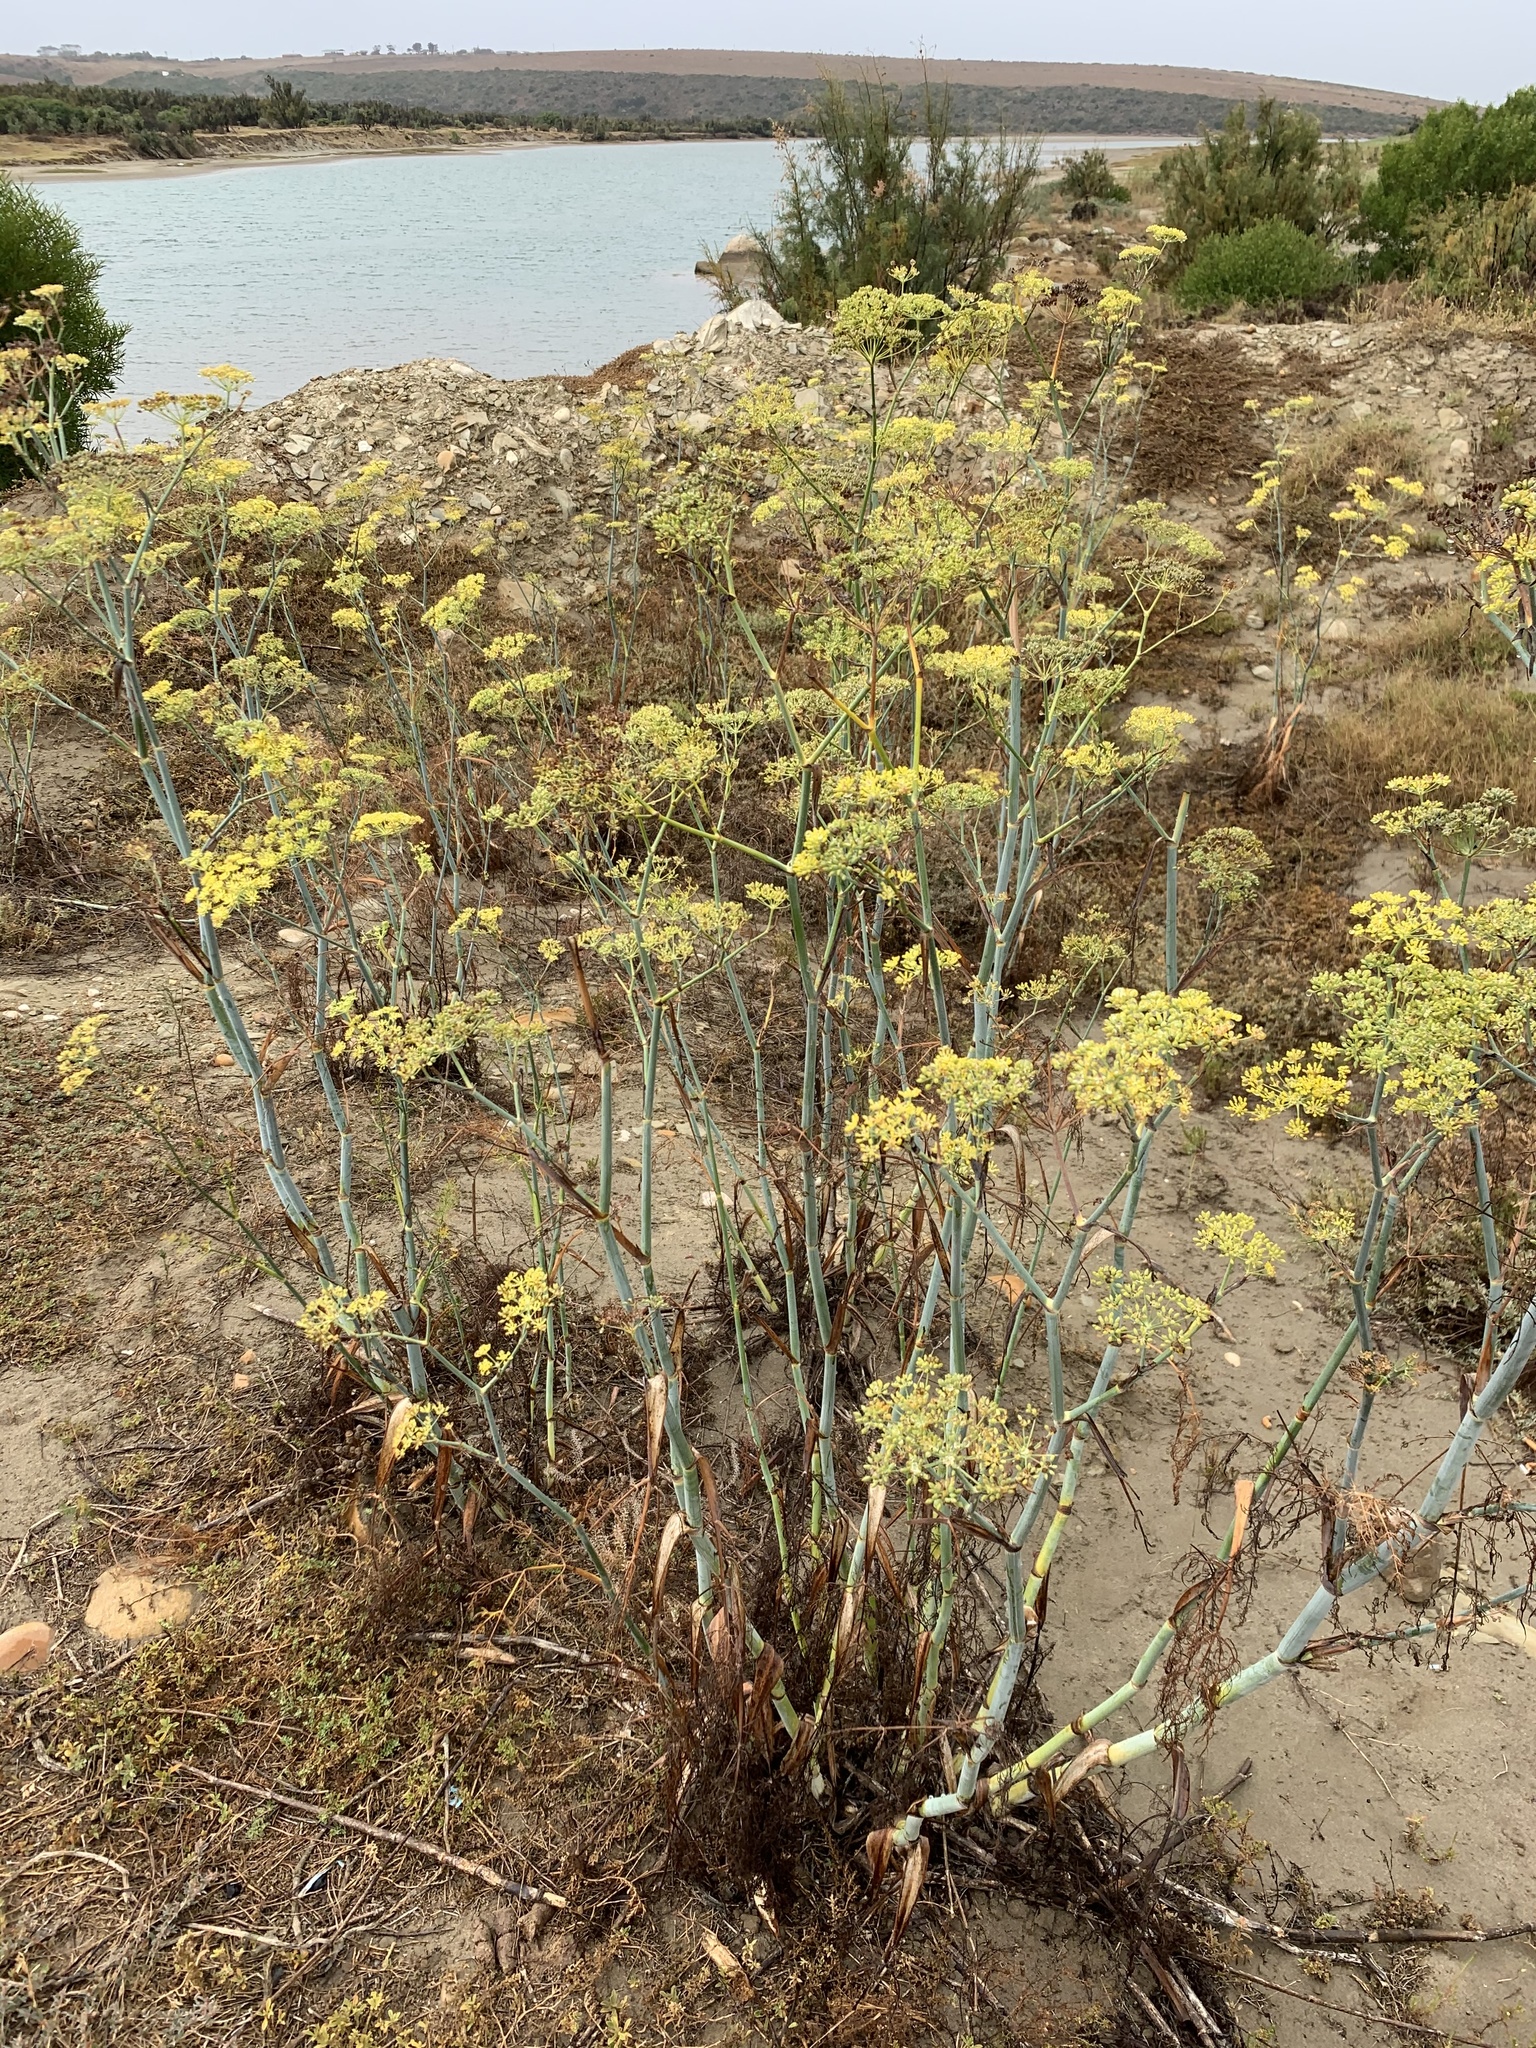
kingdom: Plantae
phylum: Tracheophyta
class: Magnoliopsida
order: Apiales
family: Apiaceae
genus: Foeniculum
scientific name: Foeniculum vulgare
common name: Fennel
